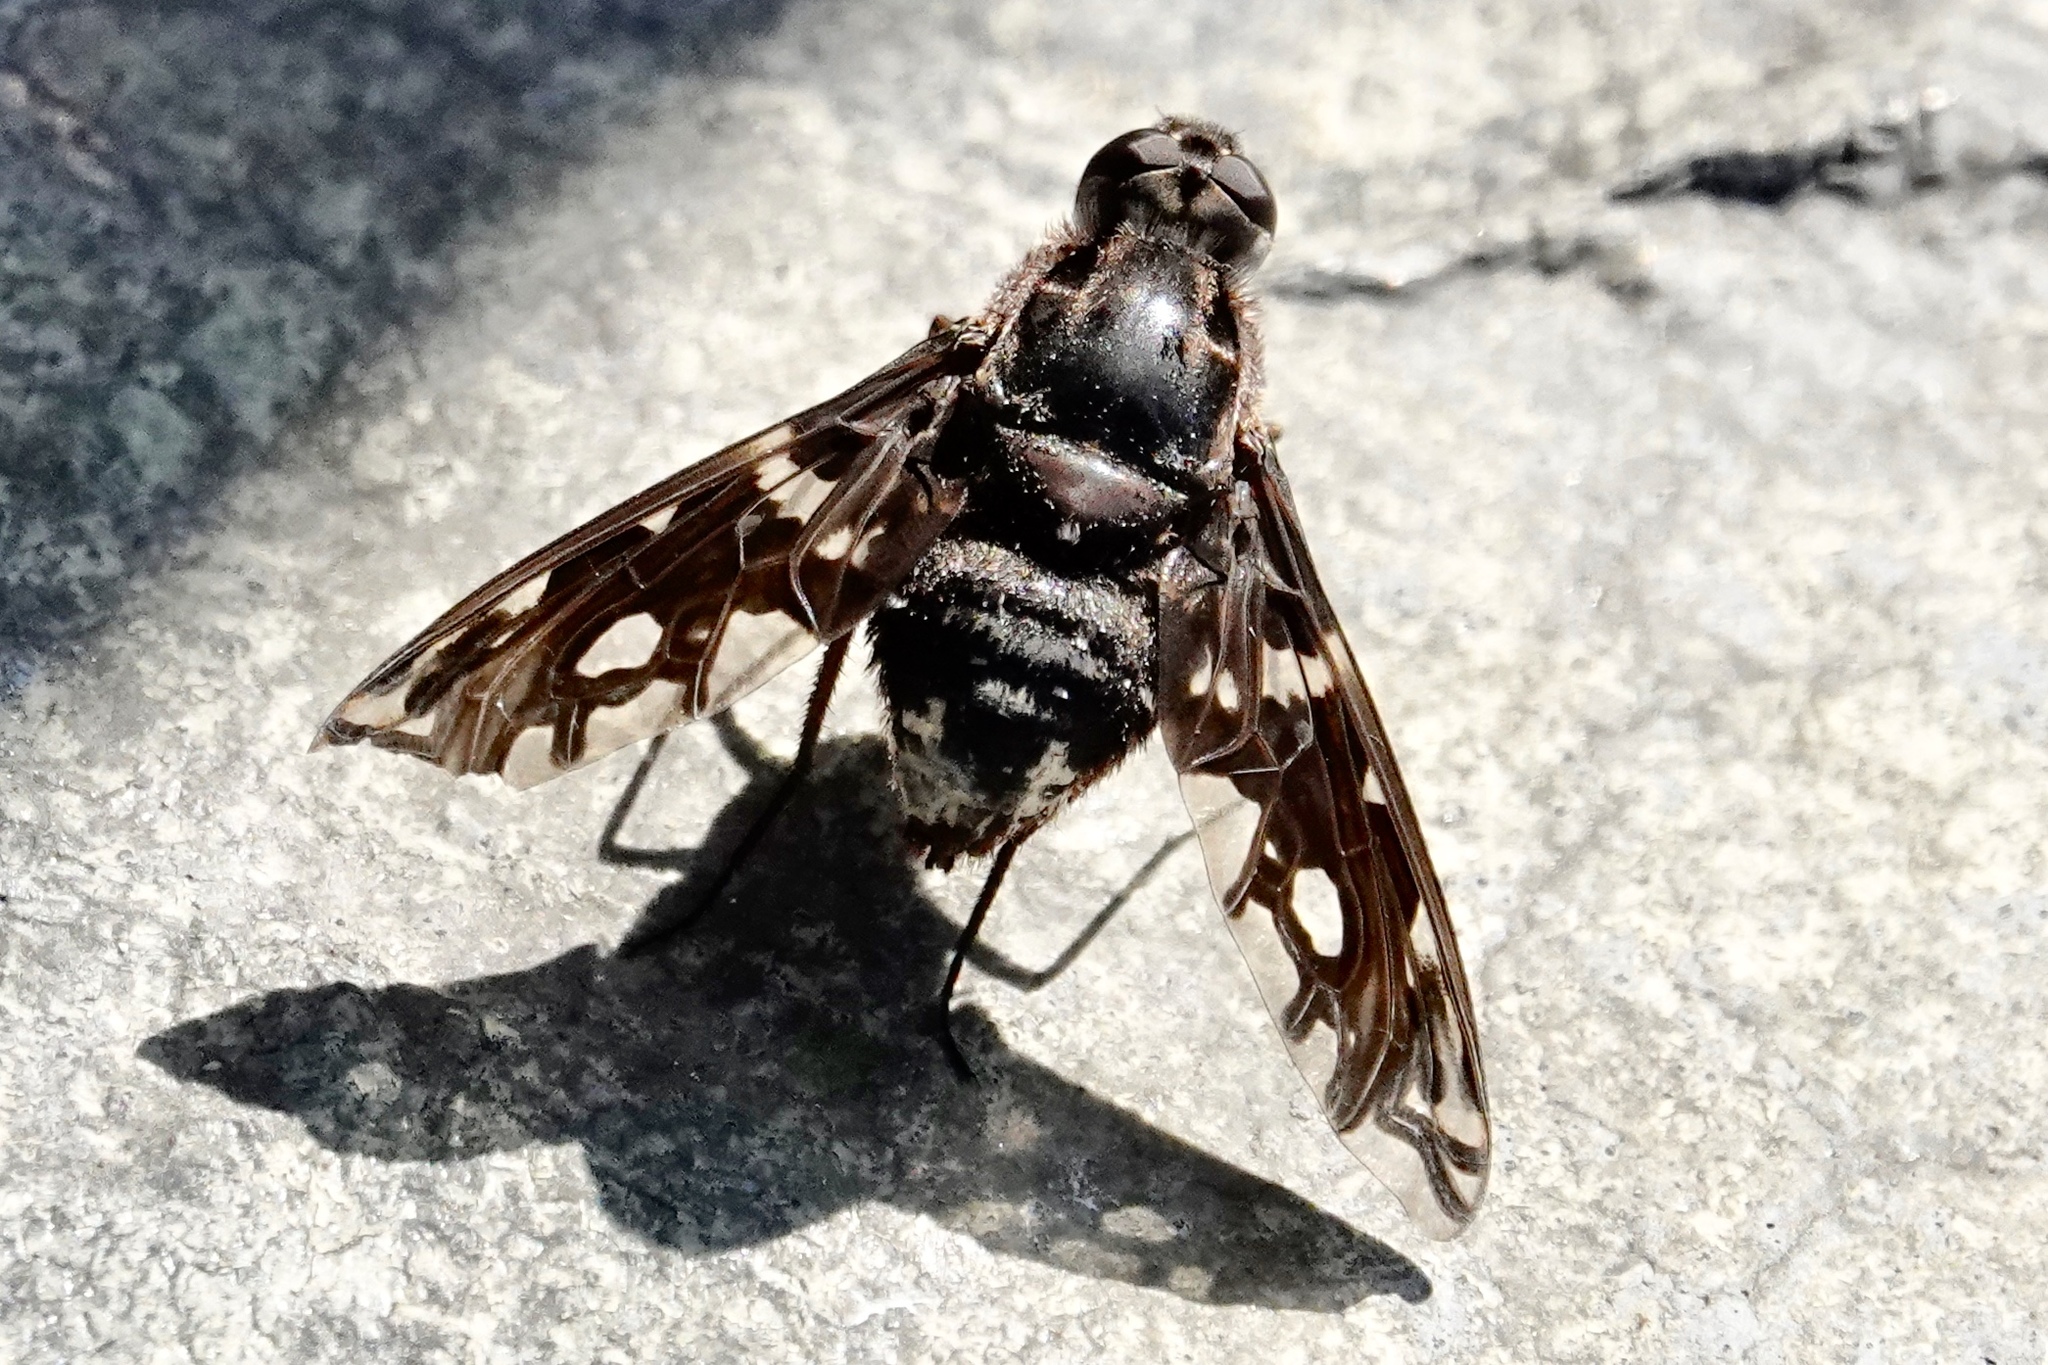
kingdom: Animalia
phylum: Arthropoda
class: Insecta
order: Diptera
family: Bombyliidae
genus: Xenox
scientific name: Xenox tigrinus
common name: Tiger bee fly
